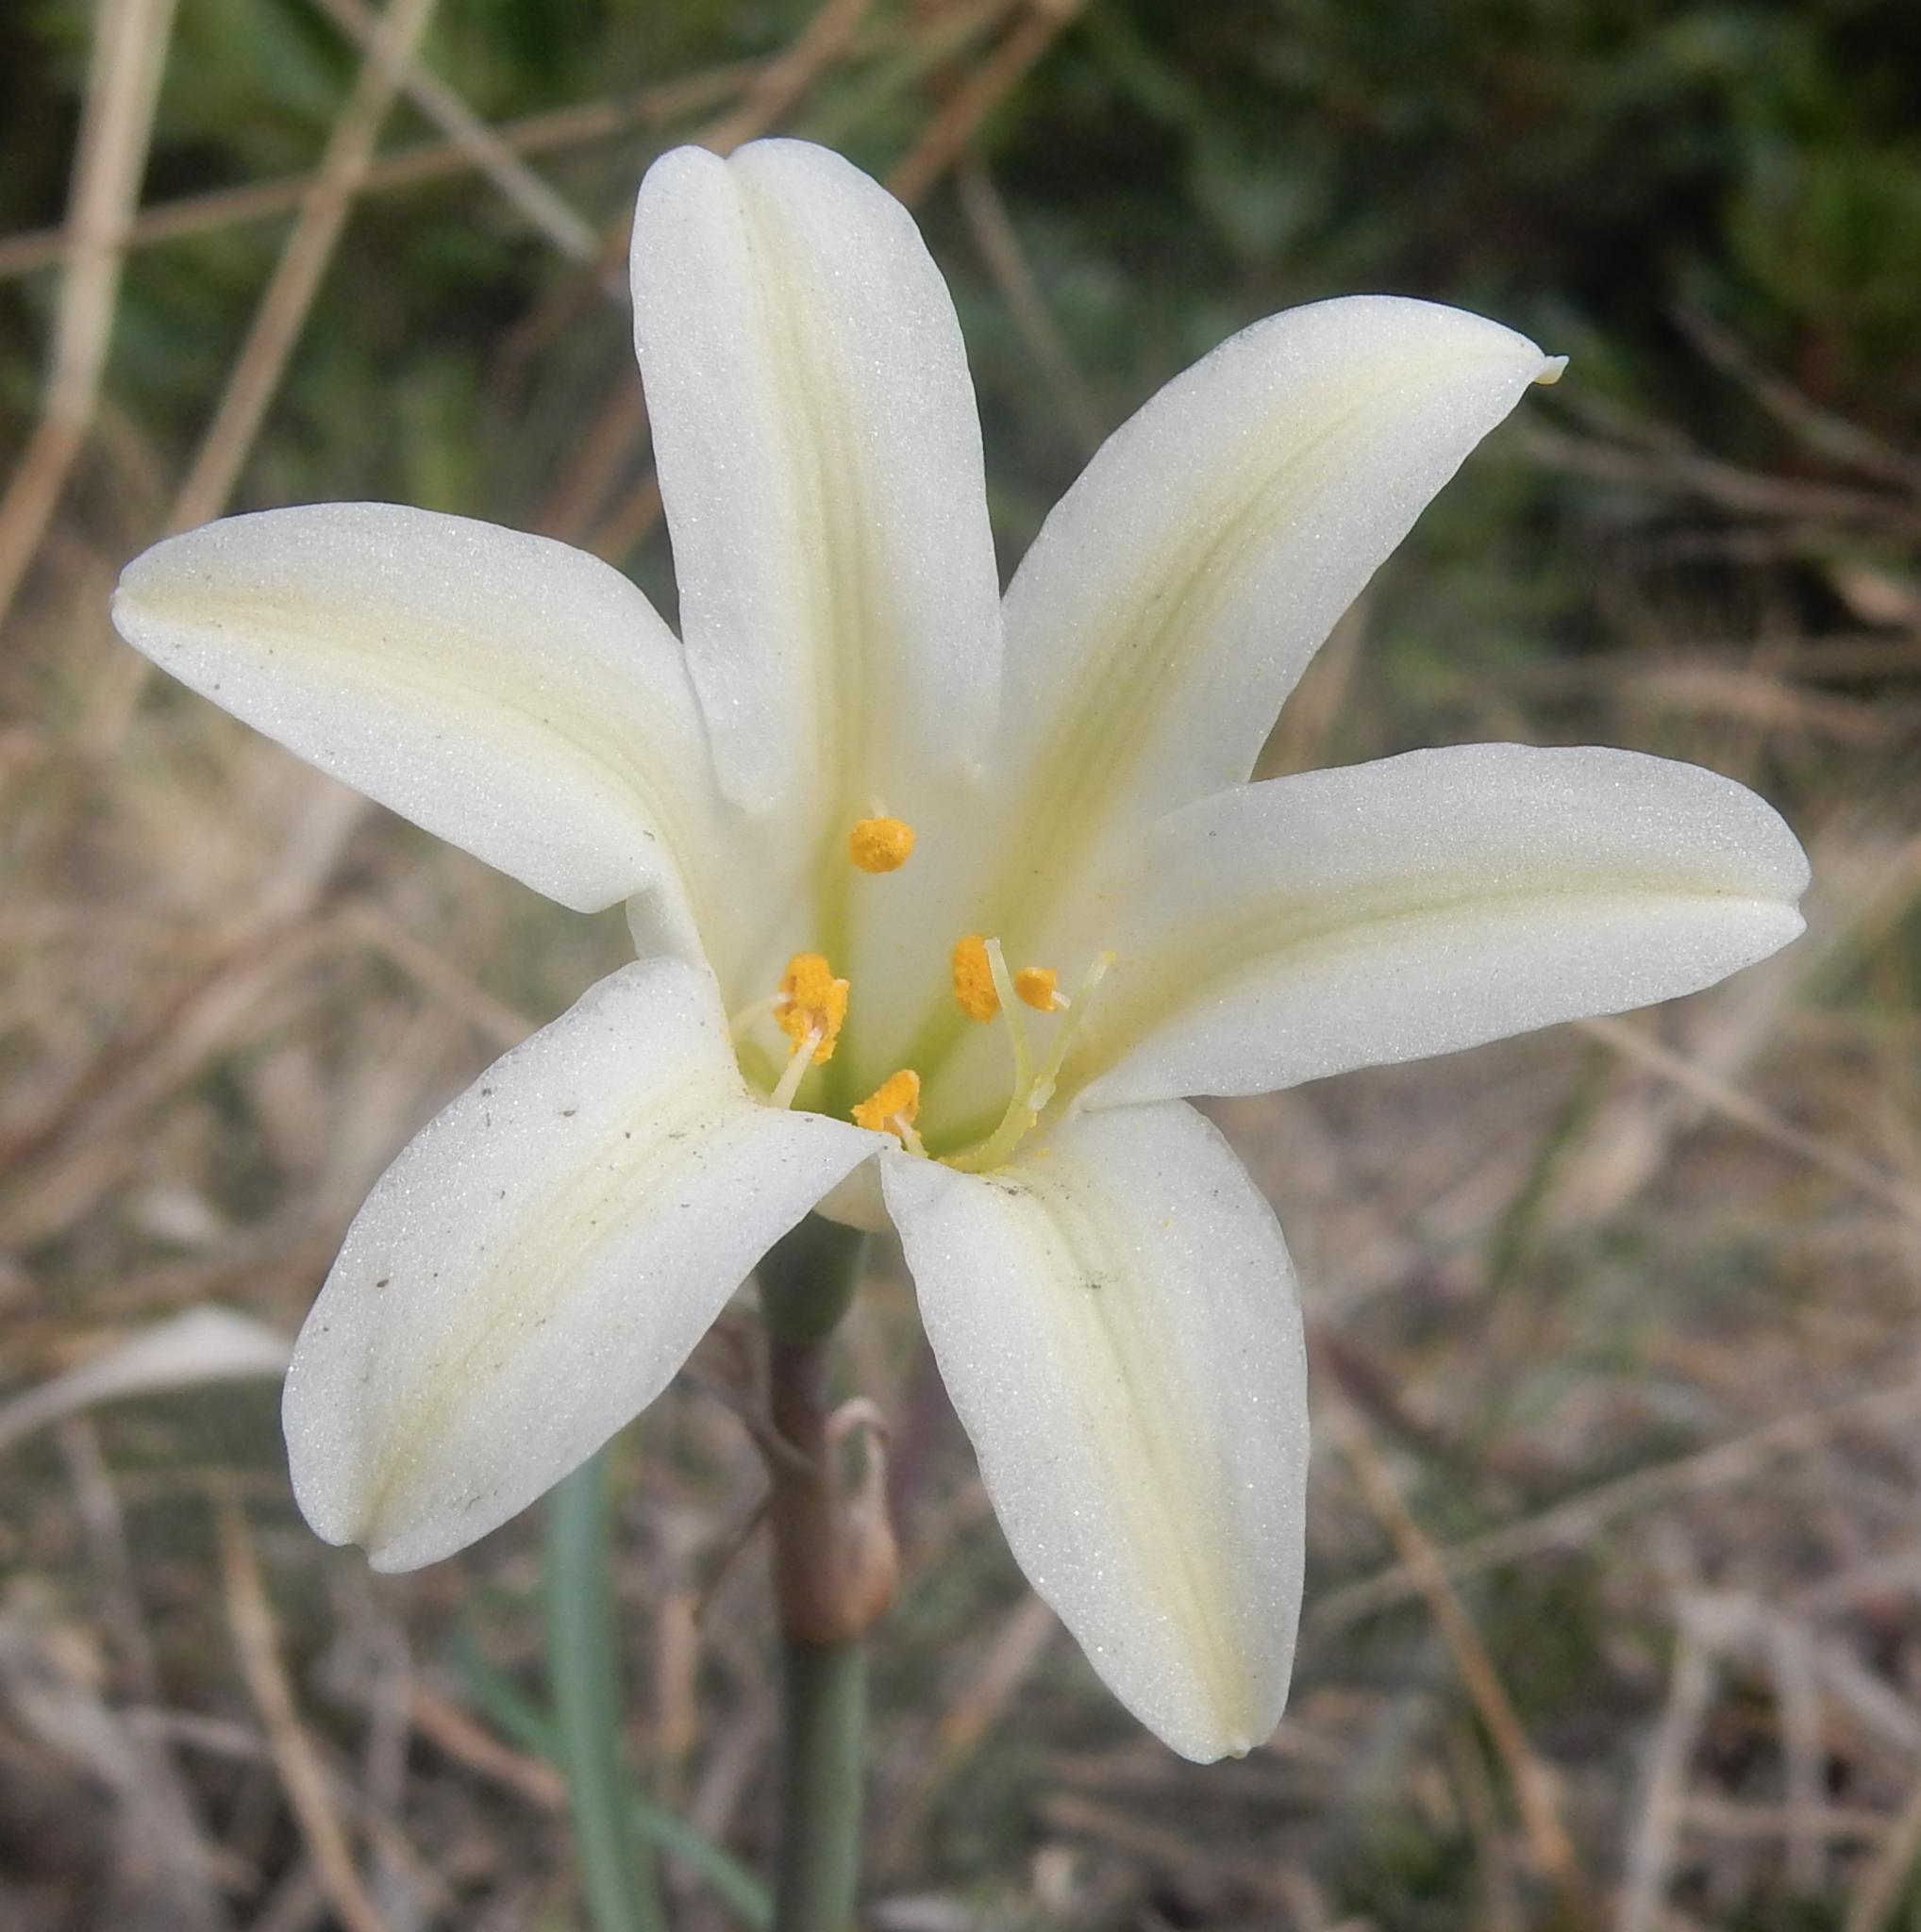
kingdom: Plantae
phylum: Tracheophyta
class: Liliopsida
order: Asparagales
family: Amaryllidaceae
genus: Cyrtanthus
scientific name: Cyrtanthus loddigesianus
